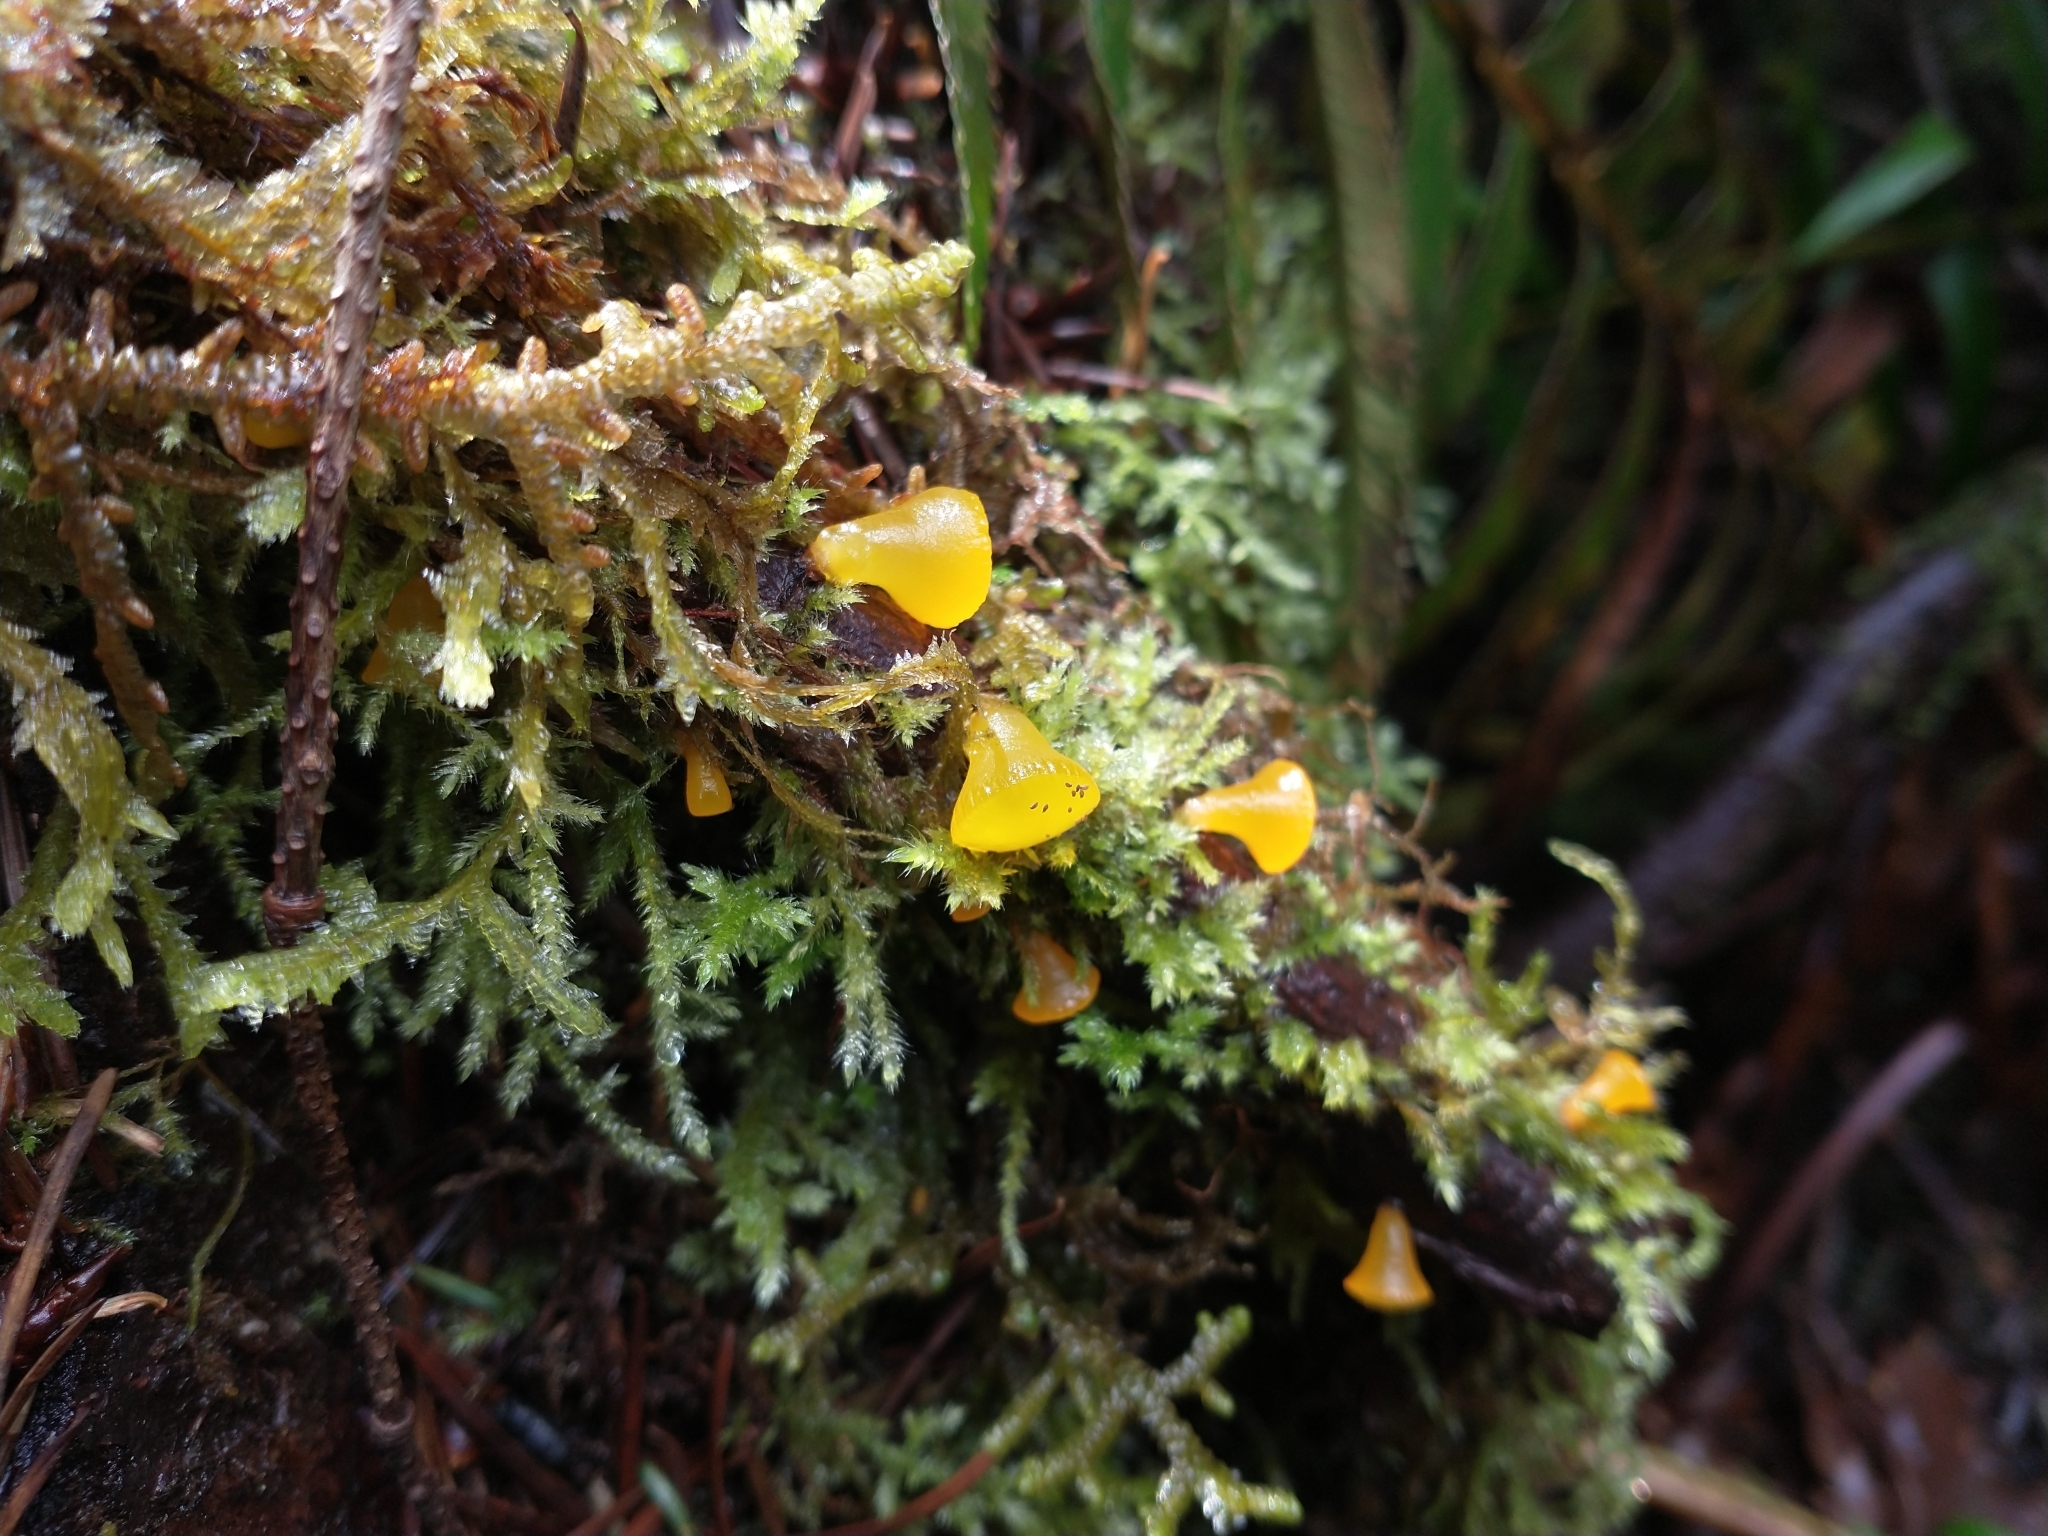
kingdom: Fungi
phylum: Basidiomycota
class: Dacrymycetes
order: Dacrymycetales
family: Dacrymycetaceae
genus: Guepiniopsis
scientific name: Guepiniopsis alpina
